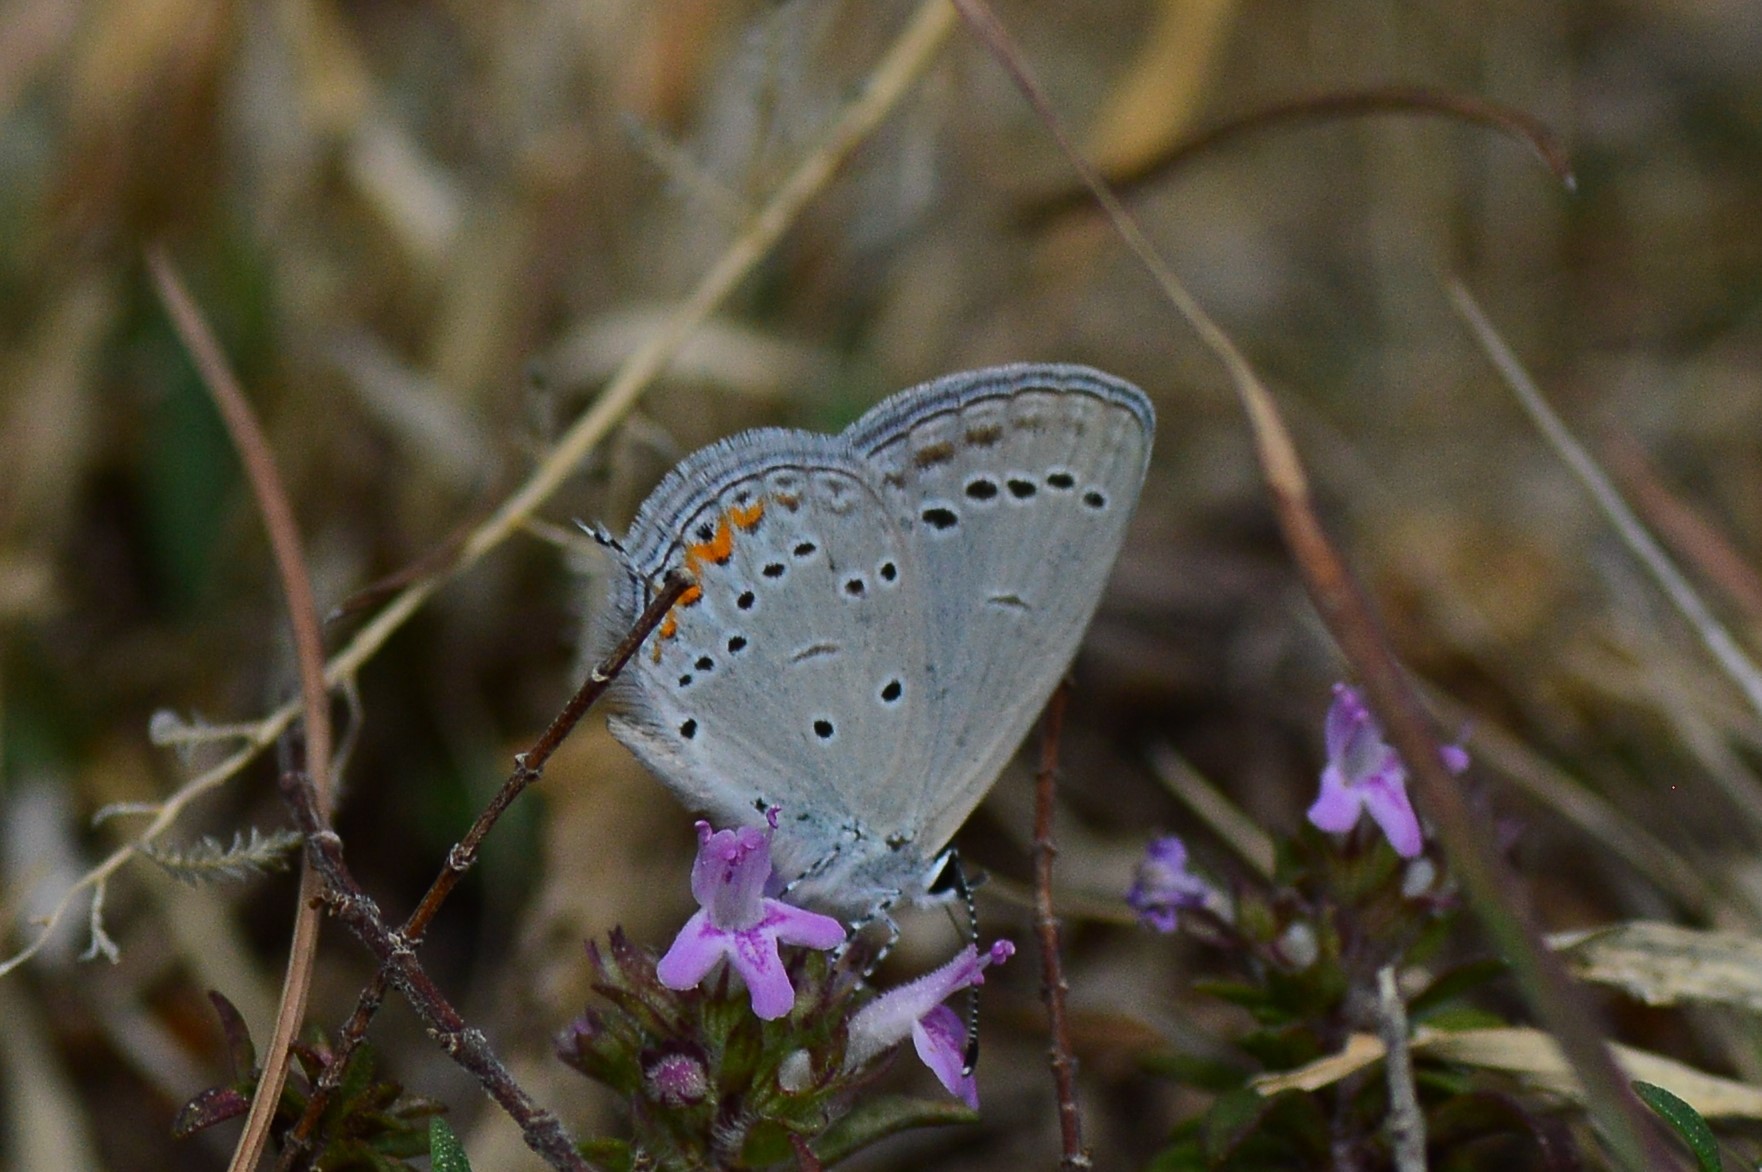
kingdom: Animalia
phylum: Arthropoda
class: Insecta
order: Lepidoptera
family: Lycaenidae
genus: Elkalyce
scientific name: Elkalyce argiades
